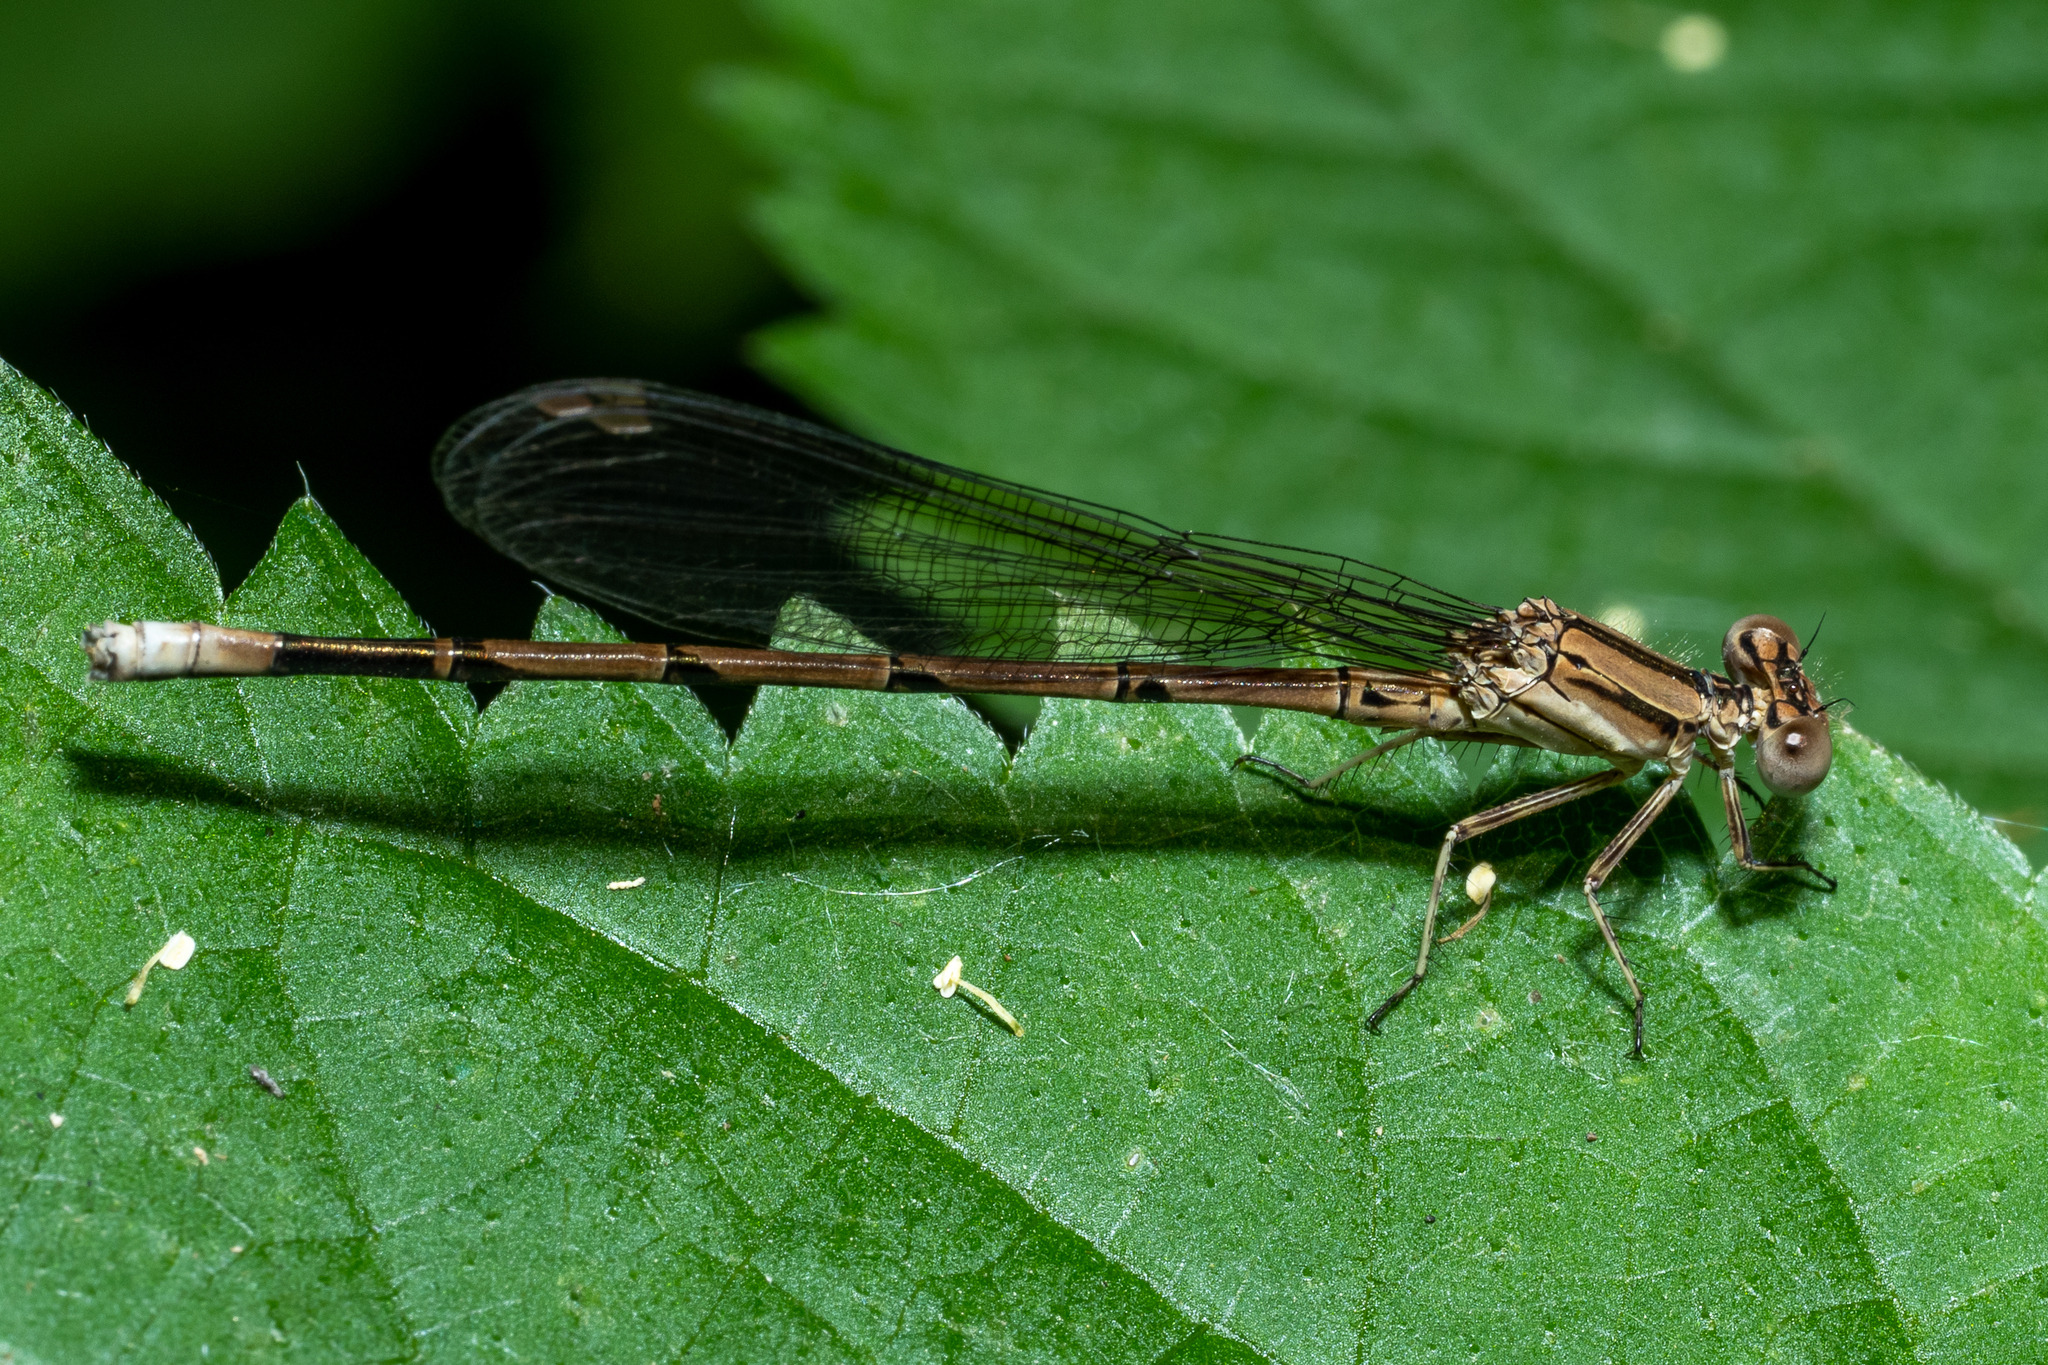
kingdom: Animalia
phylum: Arthropoda
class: Insecta
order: Odonata
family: Coenagrionidae
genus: Argia
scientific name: Argia fumipennis
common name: Variable dancer
